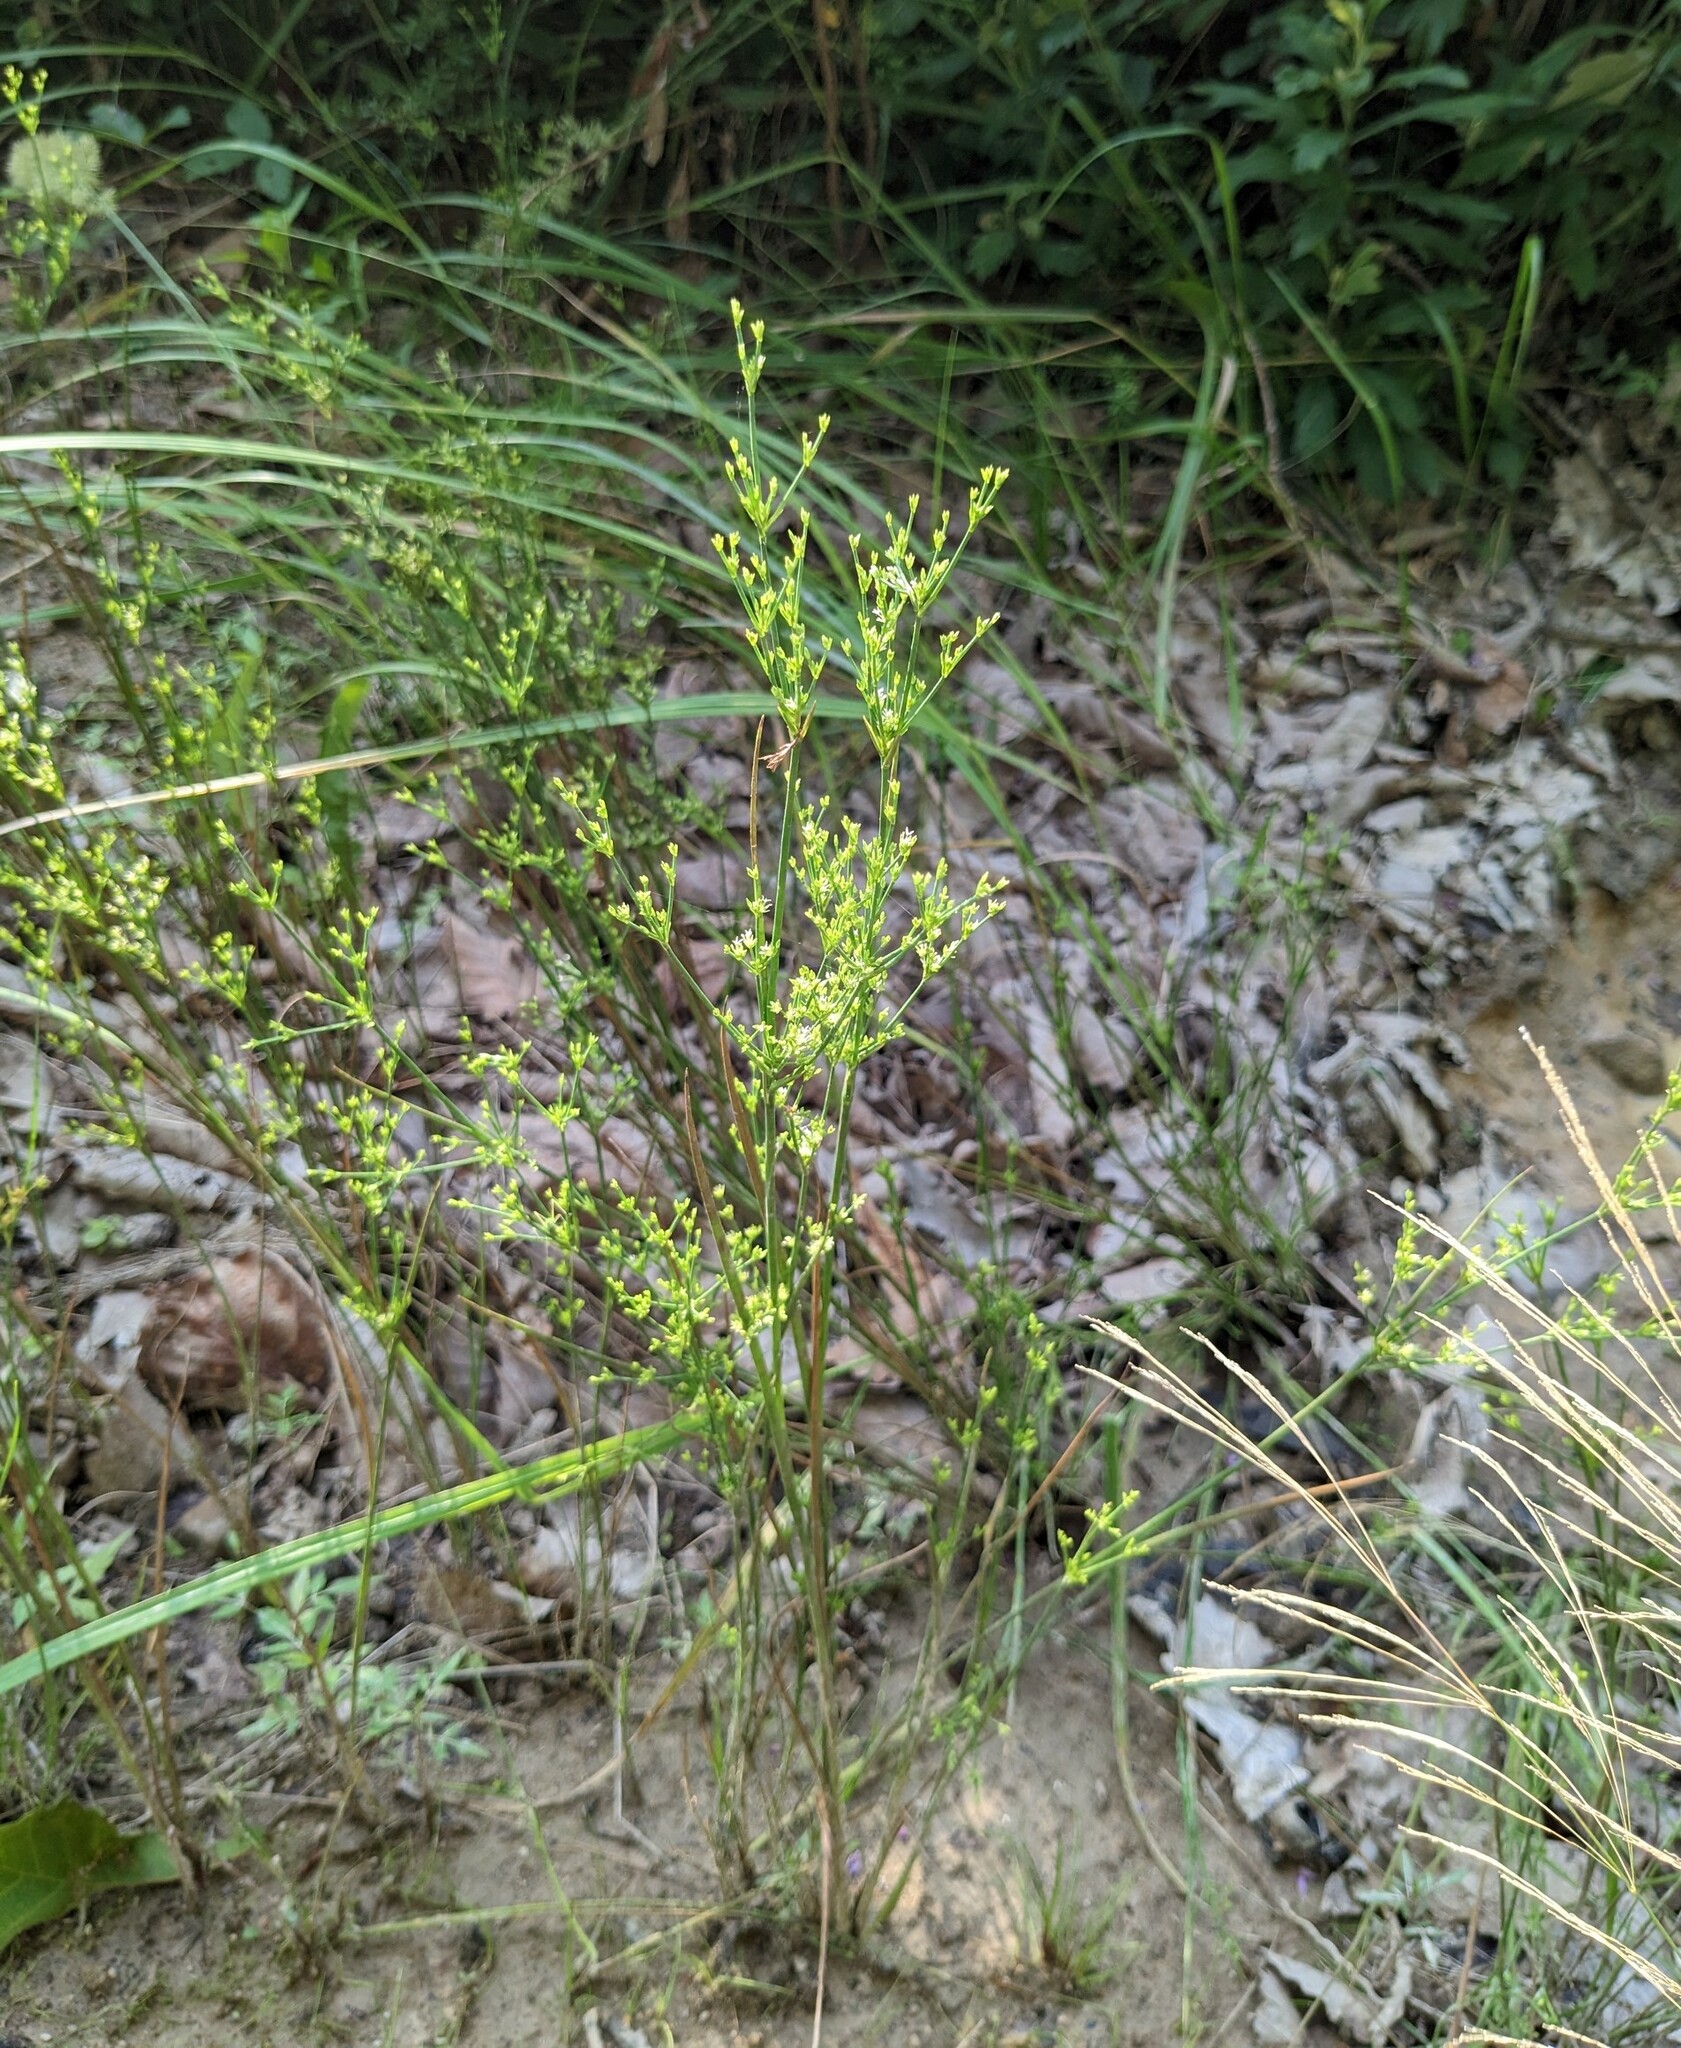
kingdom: Plantae
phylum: Tracheophyta
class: Liliopsida
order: Poales
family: Juncaceae
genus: Juncus
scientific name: Juncus papillosus
